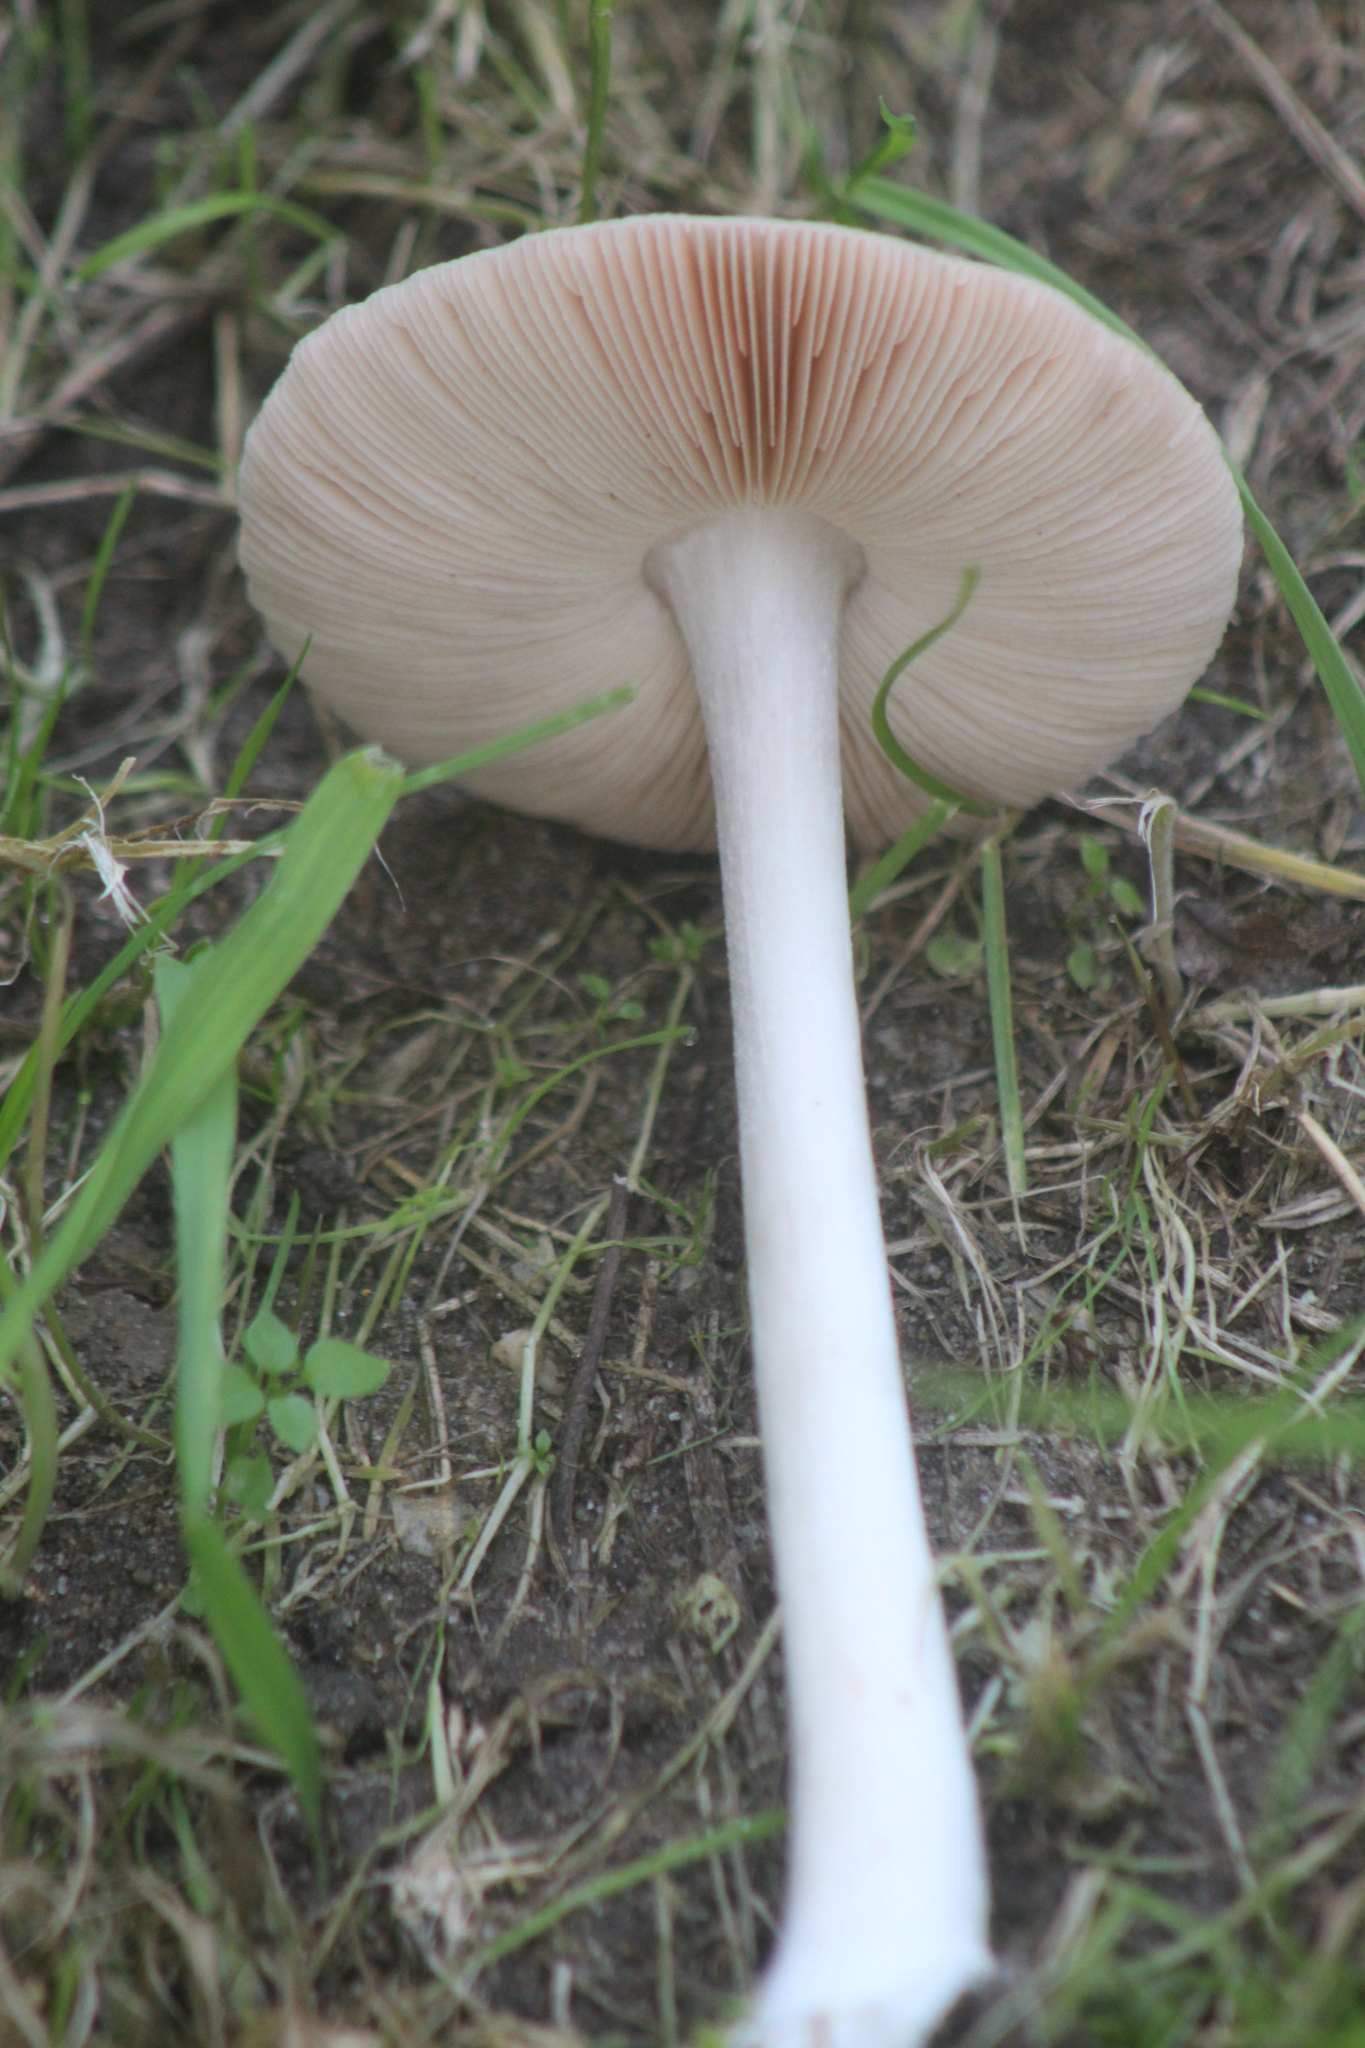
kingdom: Fungi
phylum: Basidiomycota
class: Agaricomycetes
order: Agaricales
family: Pluteaceae
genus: Volvopluteus
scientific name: Volvopluteus gloiocephalus
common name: Stubble rosegill
